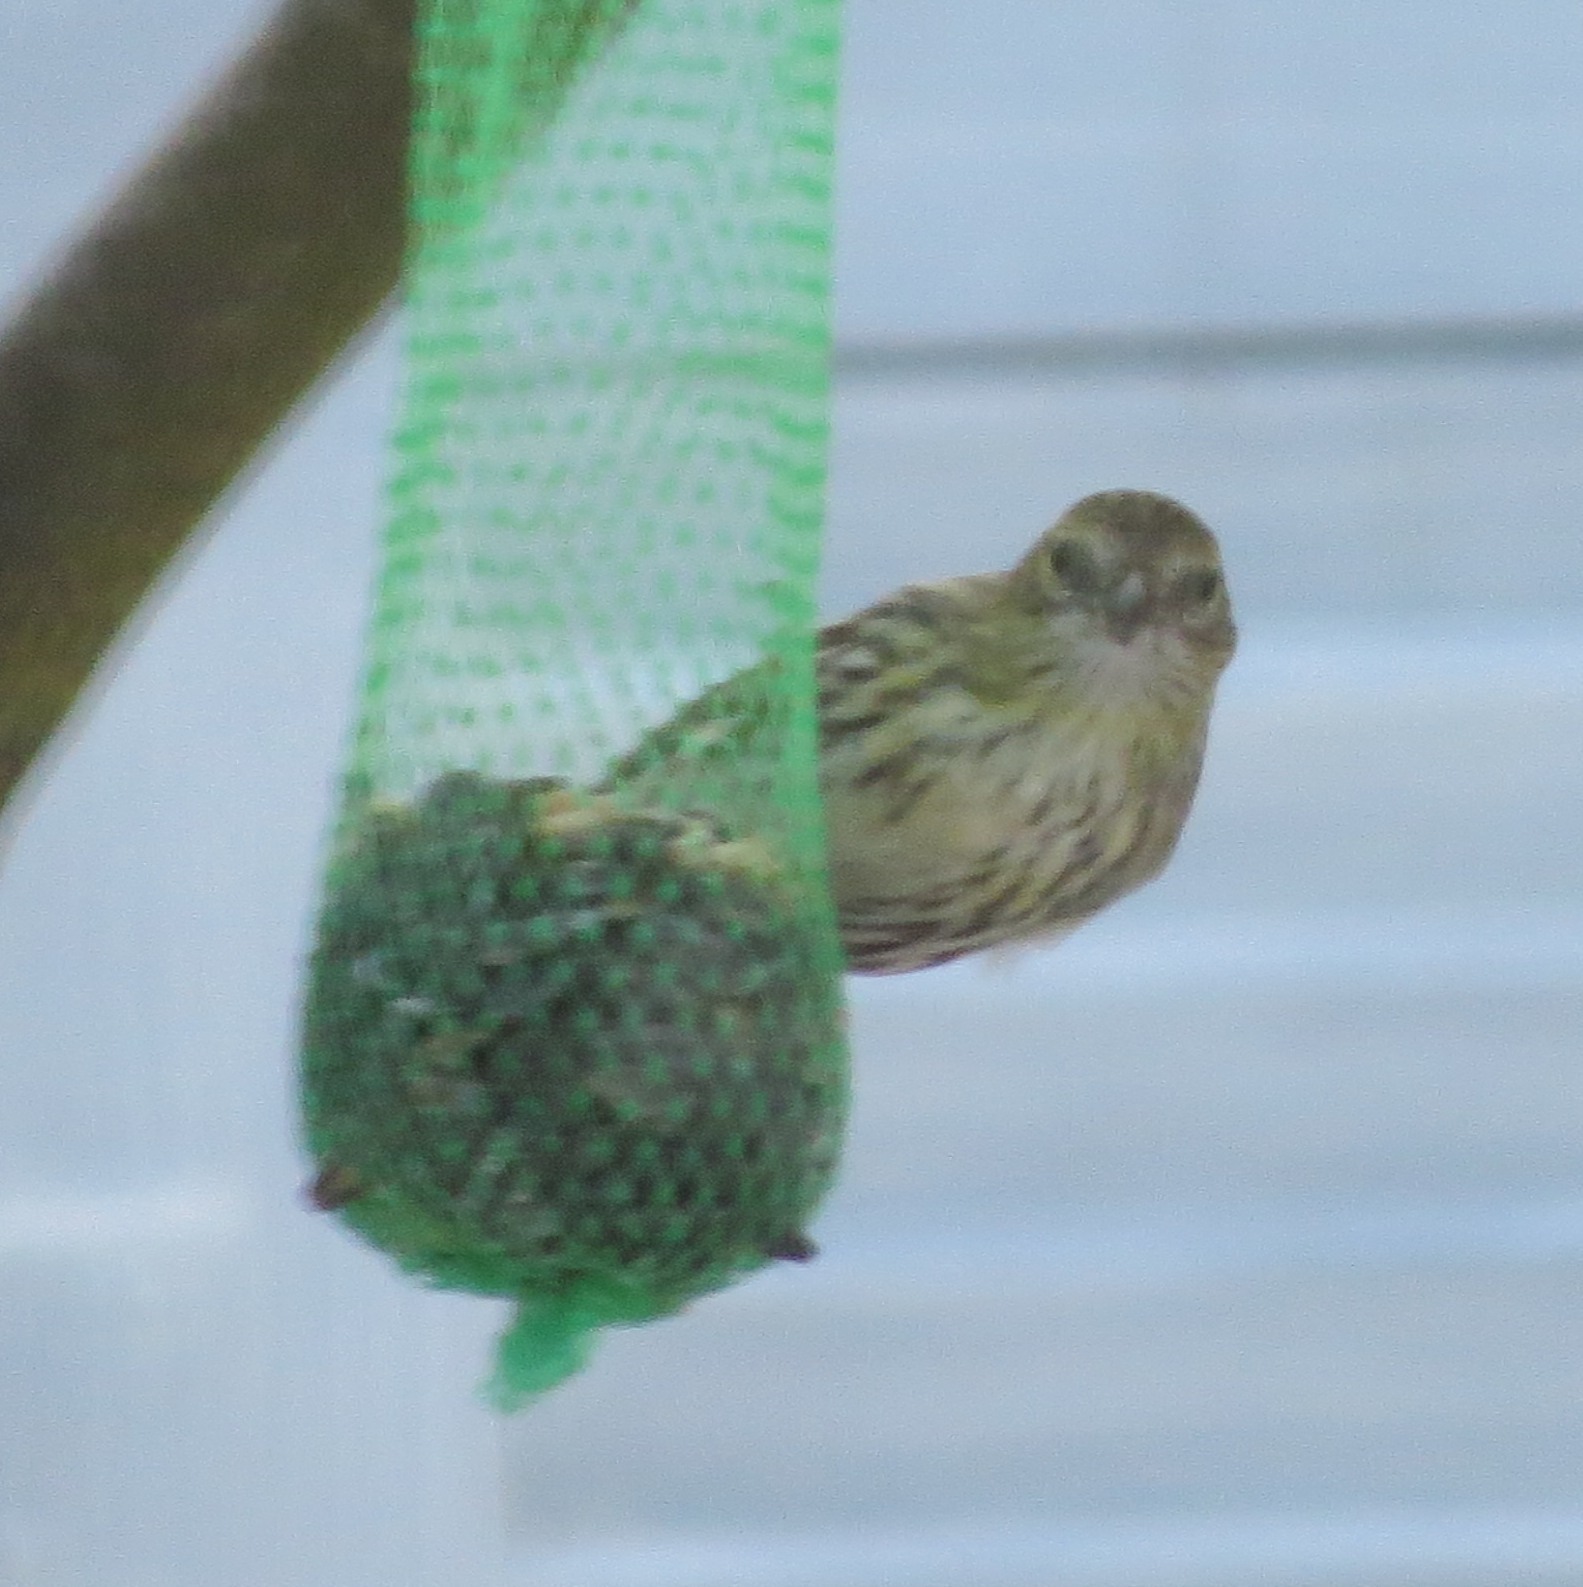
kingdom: Animalia
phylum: Chordata
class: Aves
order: Passeriformes
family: Fringillidae
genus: Spinus
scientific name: Spinus spinus
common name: Eurasian siskin
